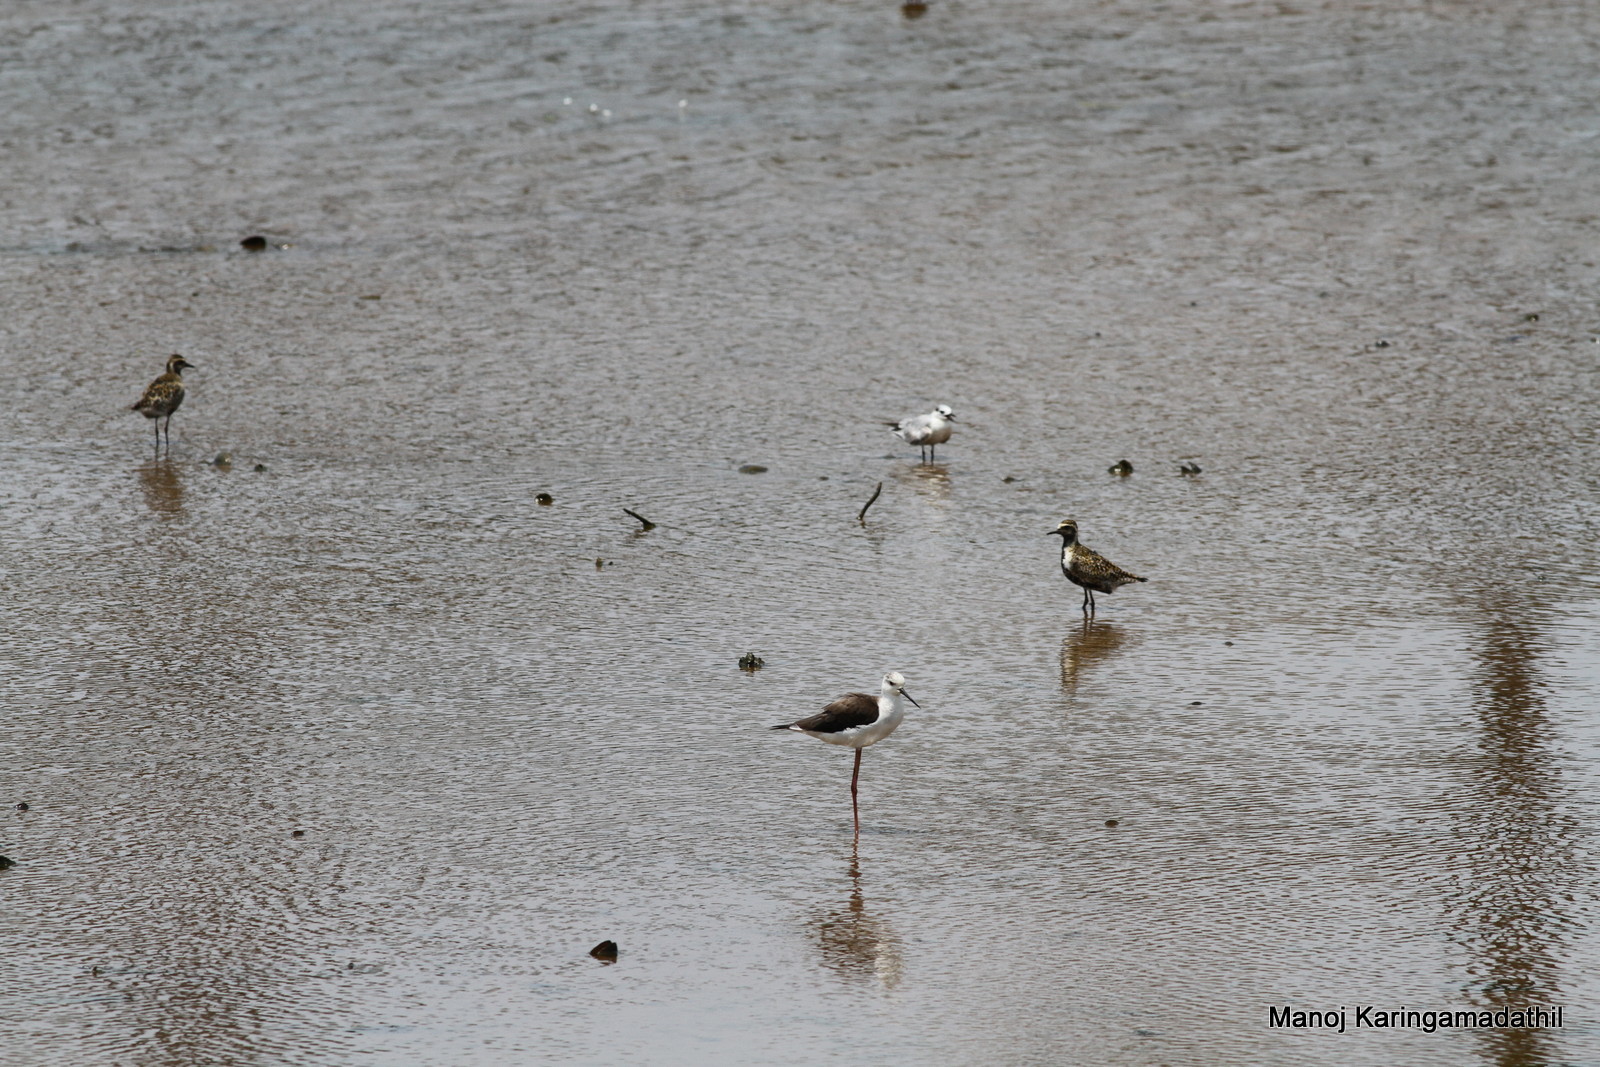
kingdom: Animalia
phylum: Chordata
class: Aves
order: Charadriiformes
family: Recurvirostridae
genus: Himantopus
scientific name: Himantopus himantopus
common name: Black-winged stilt
